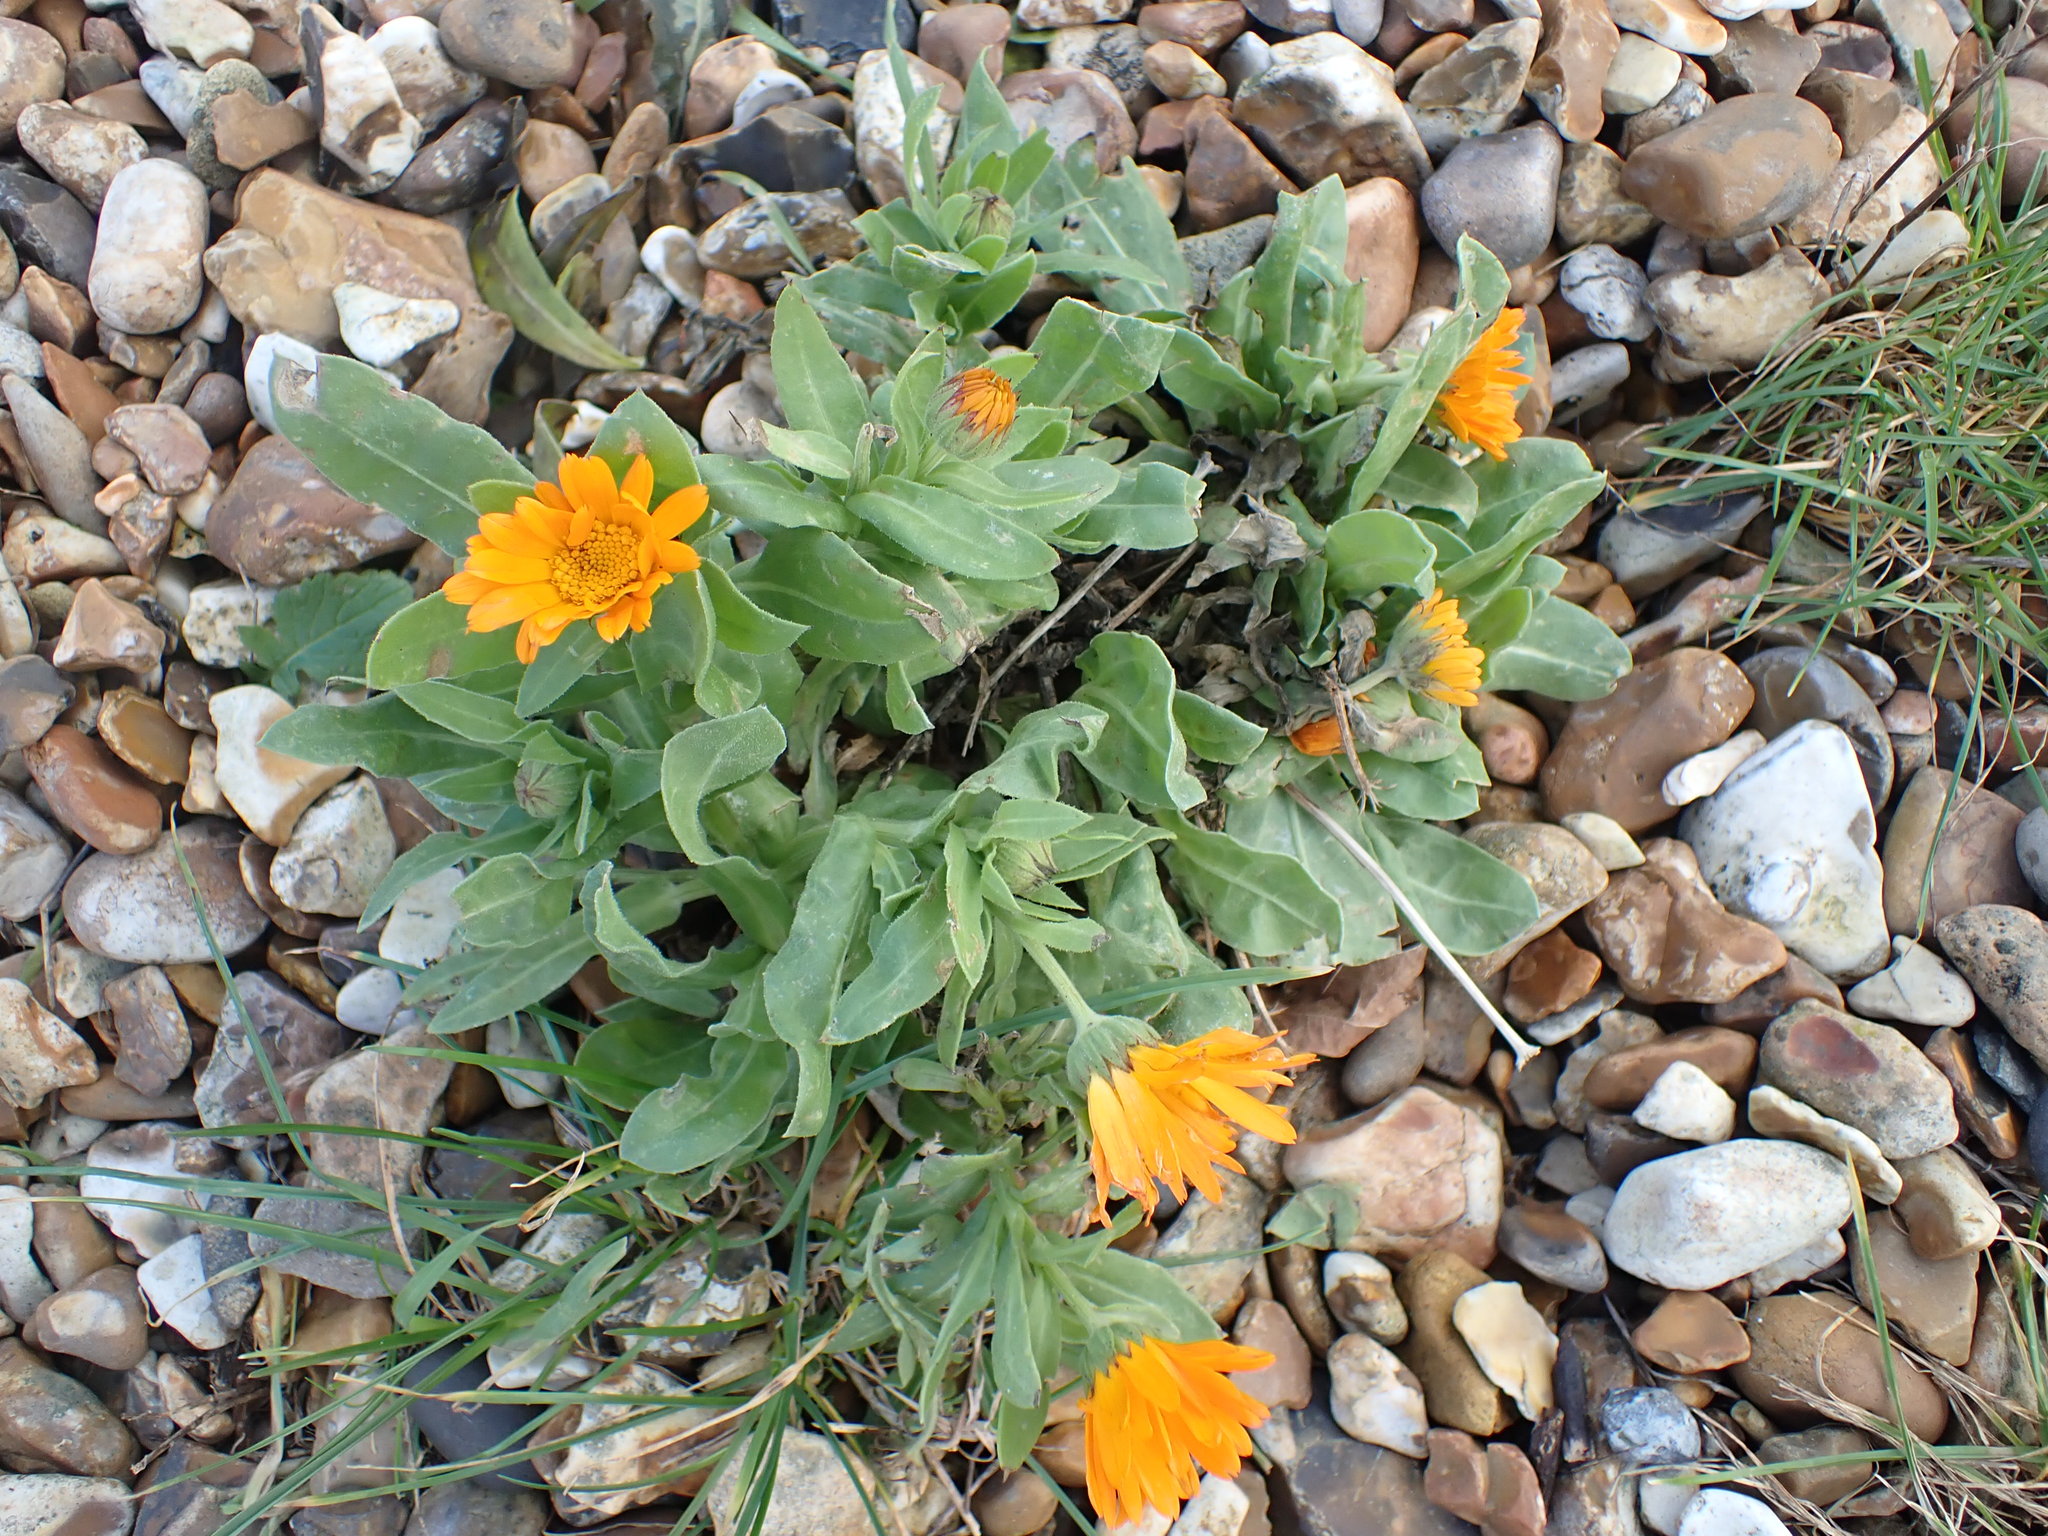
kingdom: Plantae
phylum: Tracheophyta
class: Magnoliopsida
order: Asterales
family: Asteraceae
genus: Calendula
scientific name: Calendula officinalis
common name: Pot marigold
